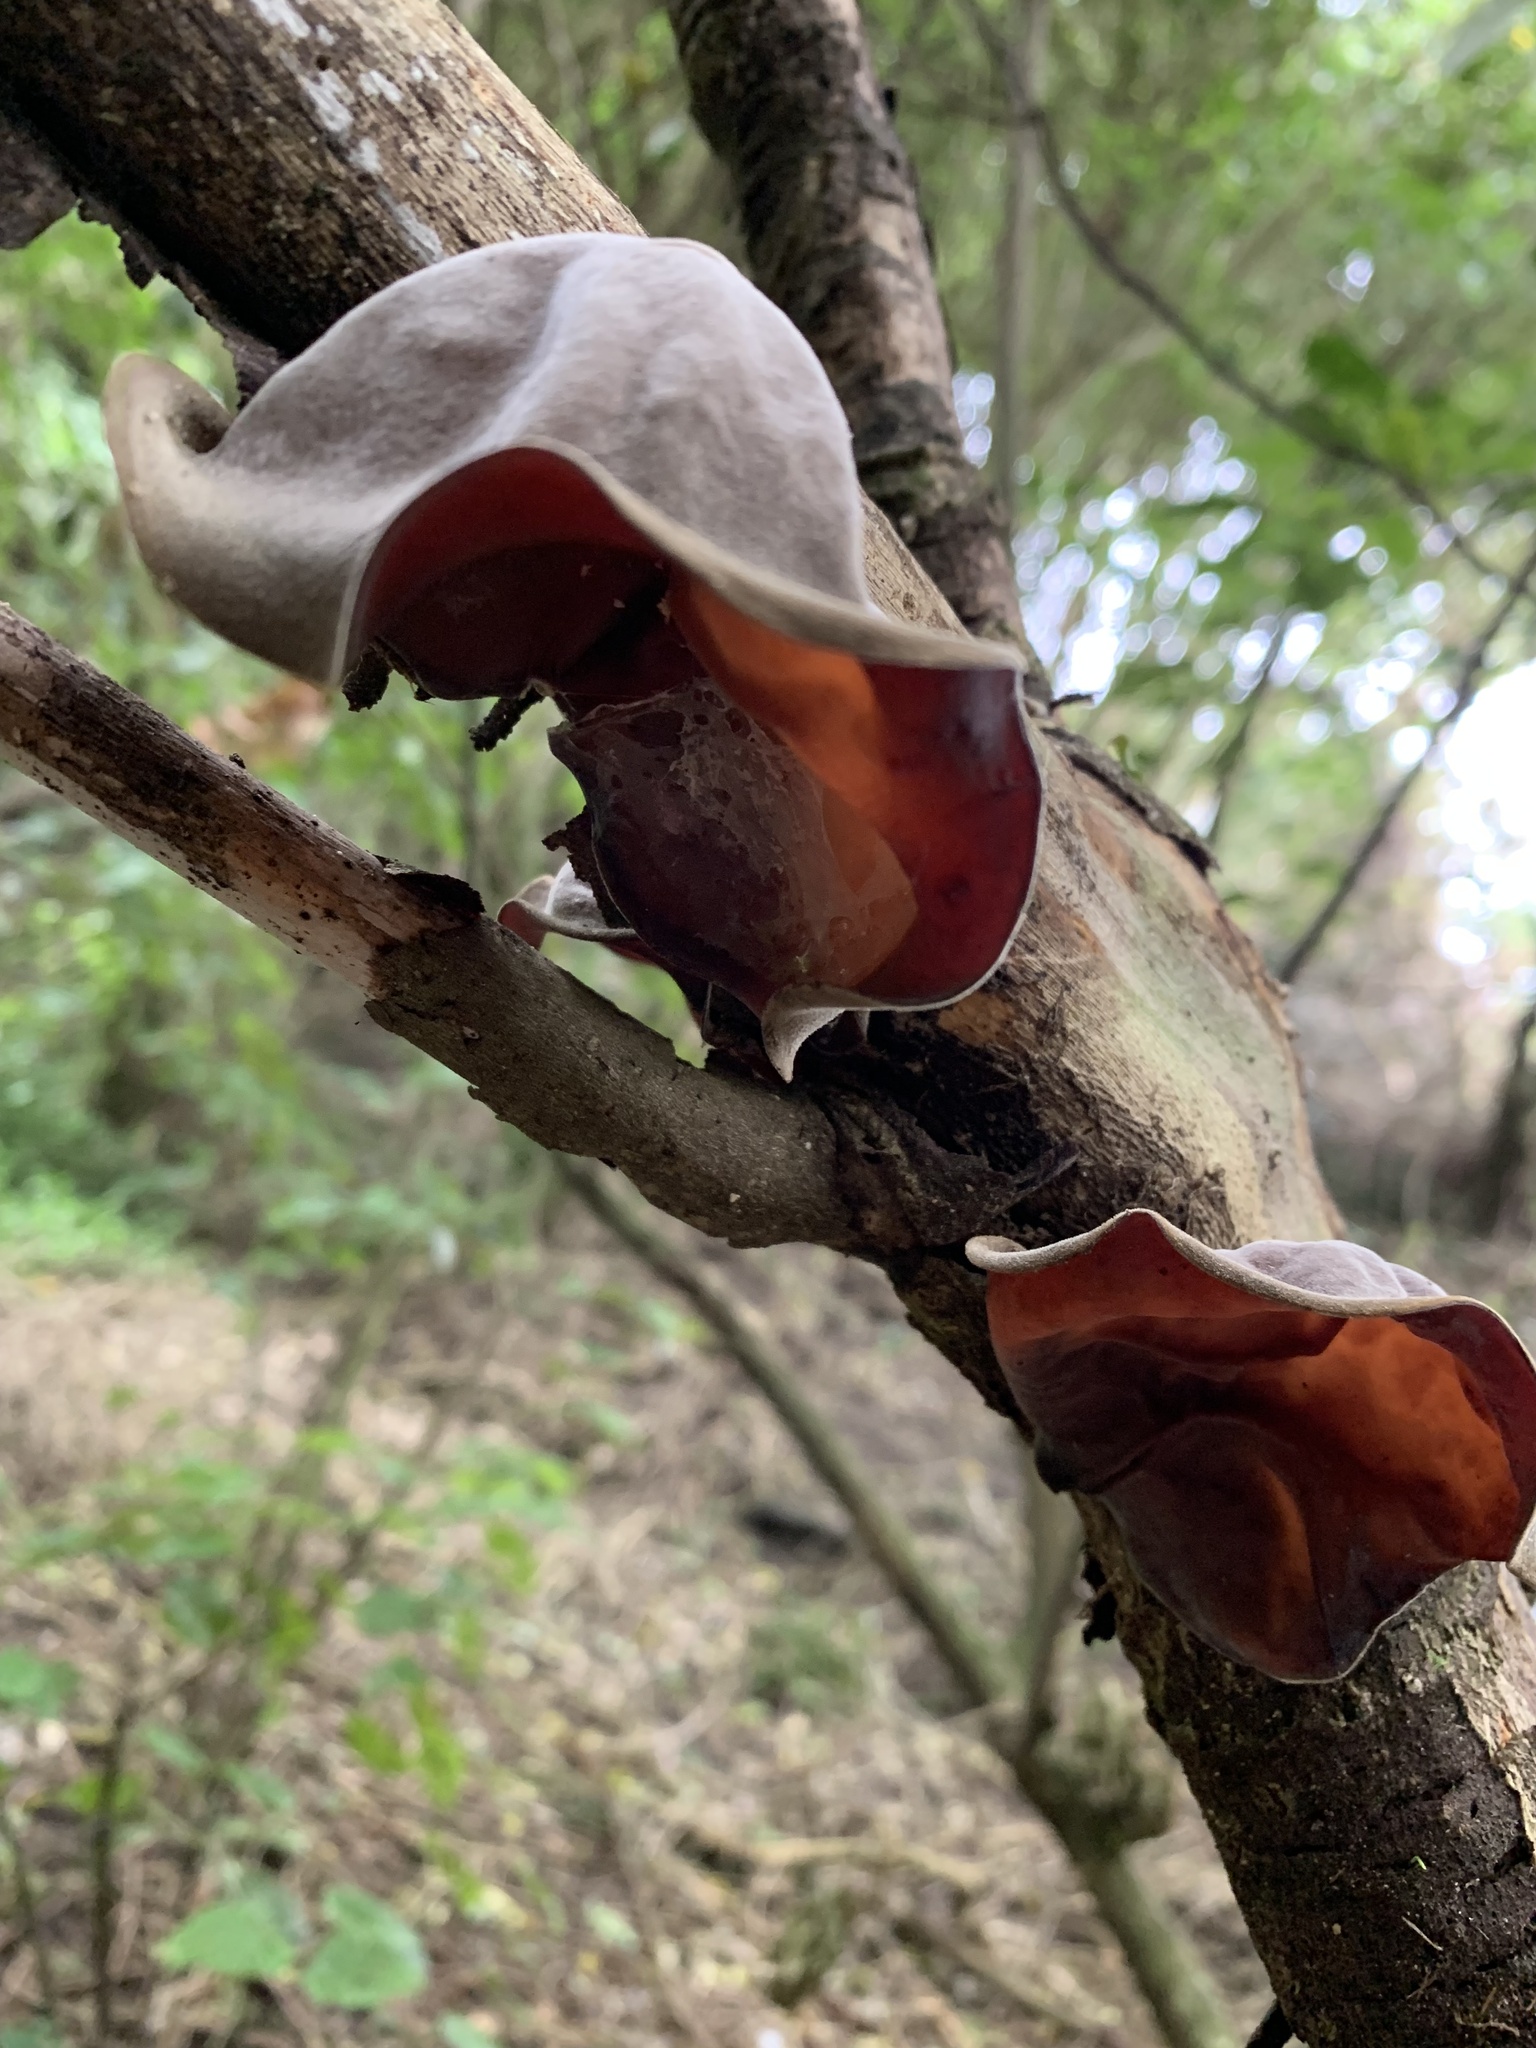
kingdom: Fungi
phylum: Basidiomycota
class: Agaricomycetes
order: Auriculariales
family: Auriculariaceae
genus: Auricularia
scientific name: Auricularia cornea
